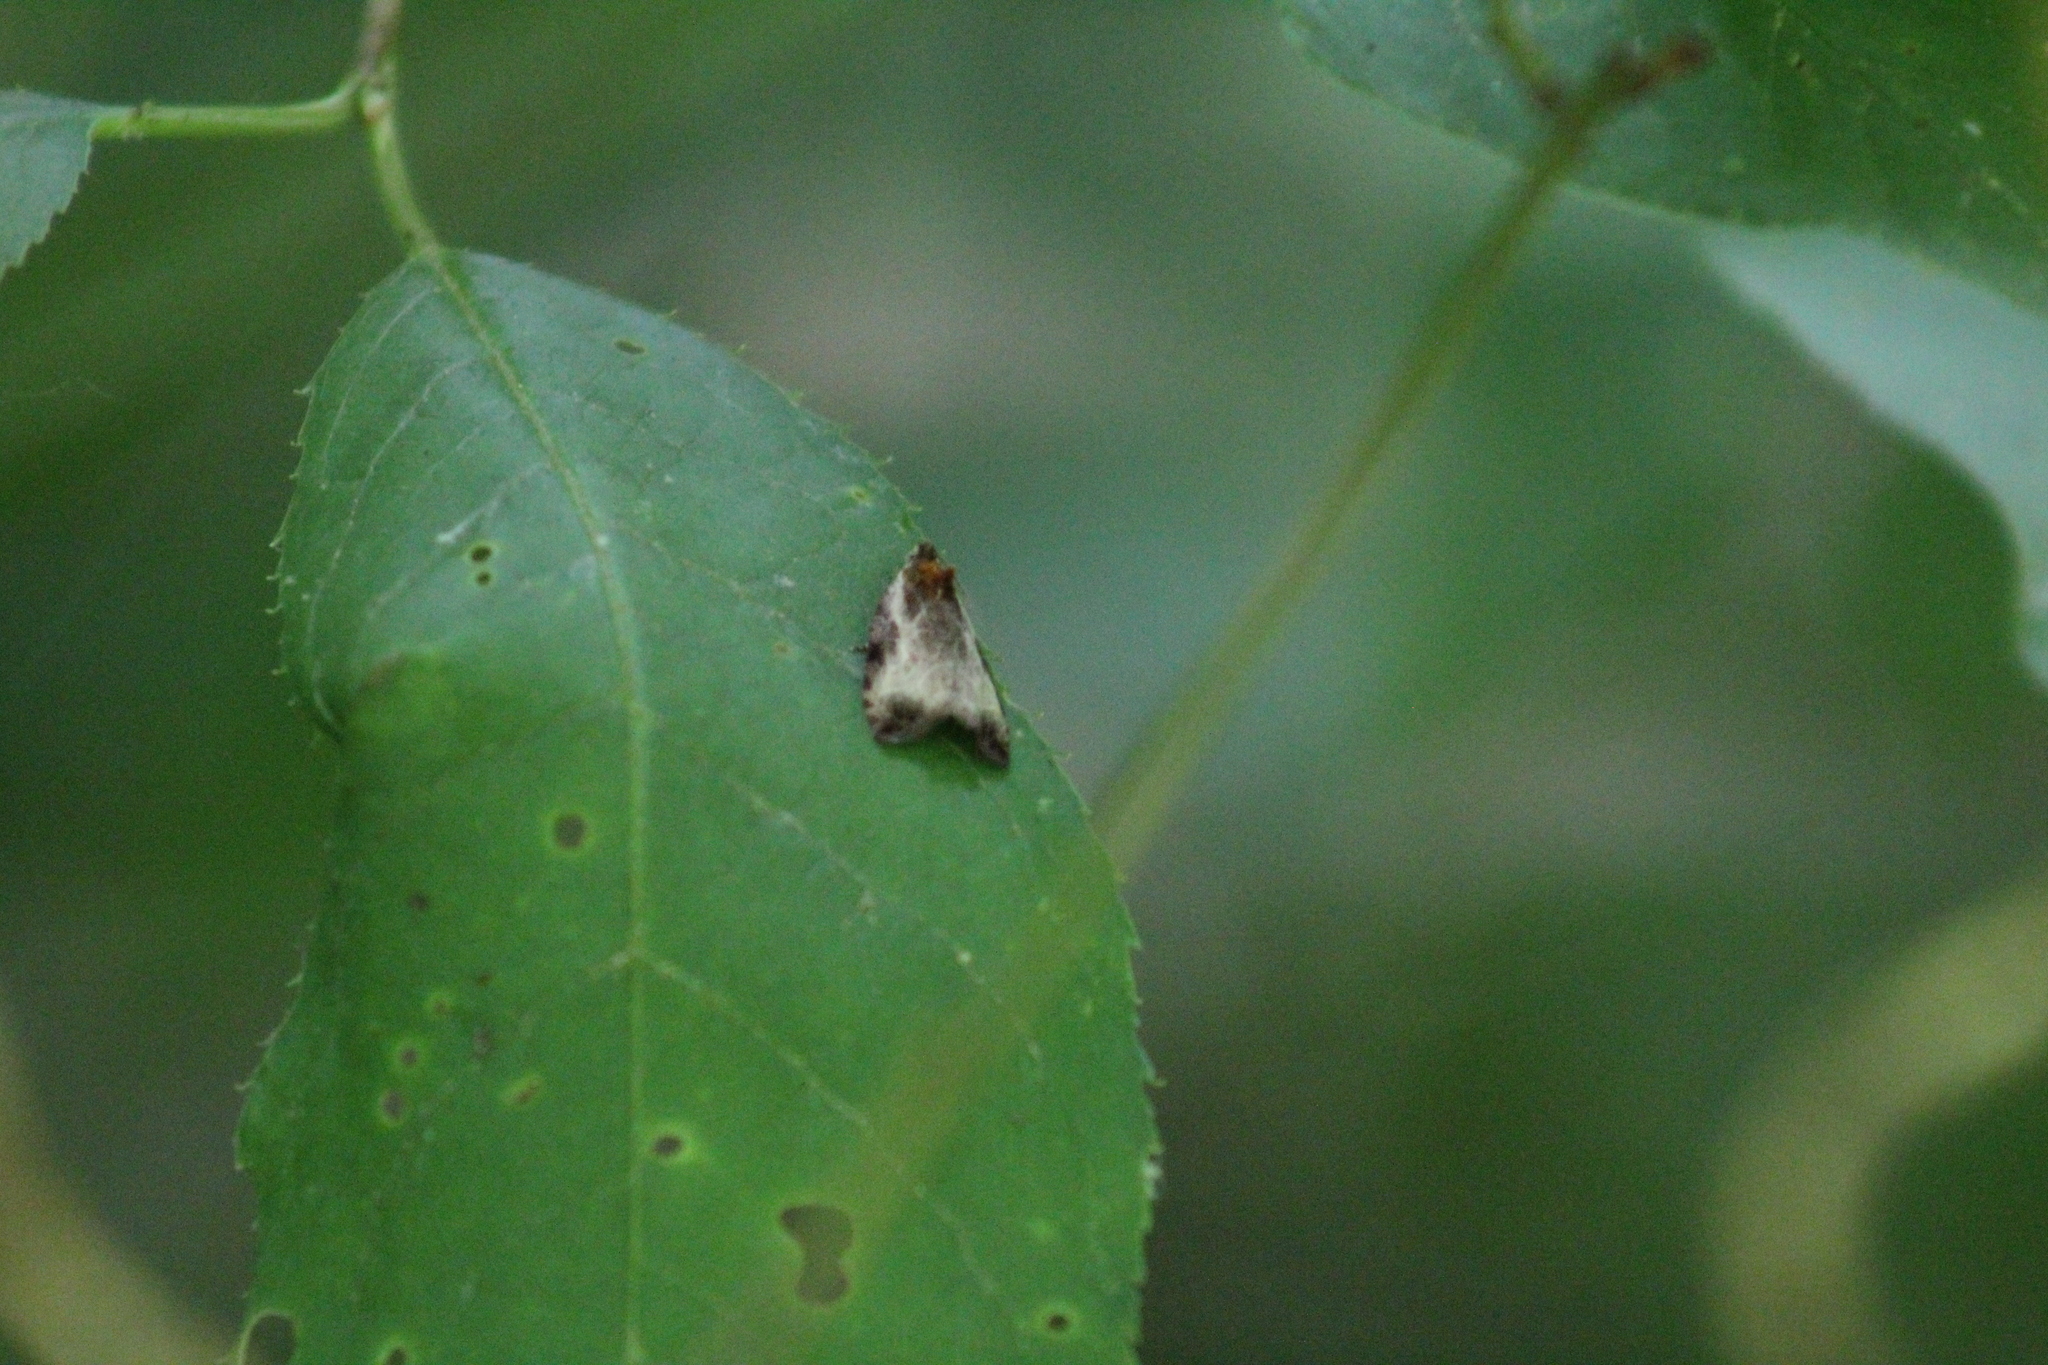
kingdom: Animalia
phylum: Arthropoda
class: Insecta
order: Lepidoptera
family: Tortricidae
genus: Olethreutes
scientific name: Olethreutes inornatana
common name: Inornate olethreutes moth
